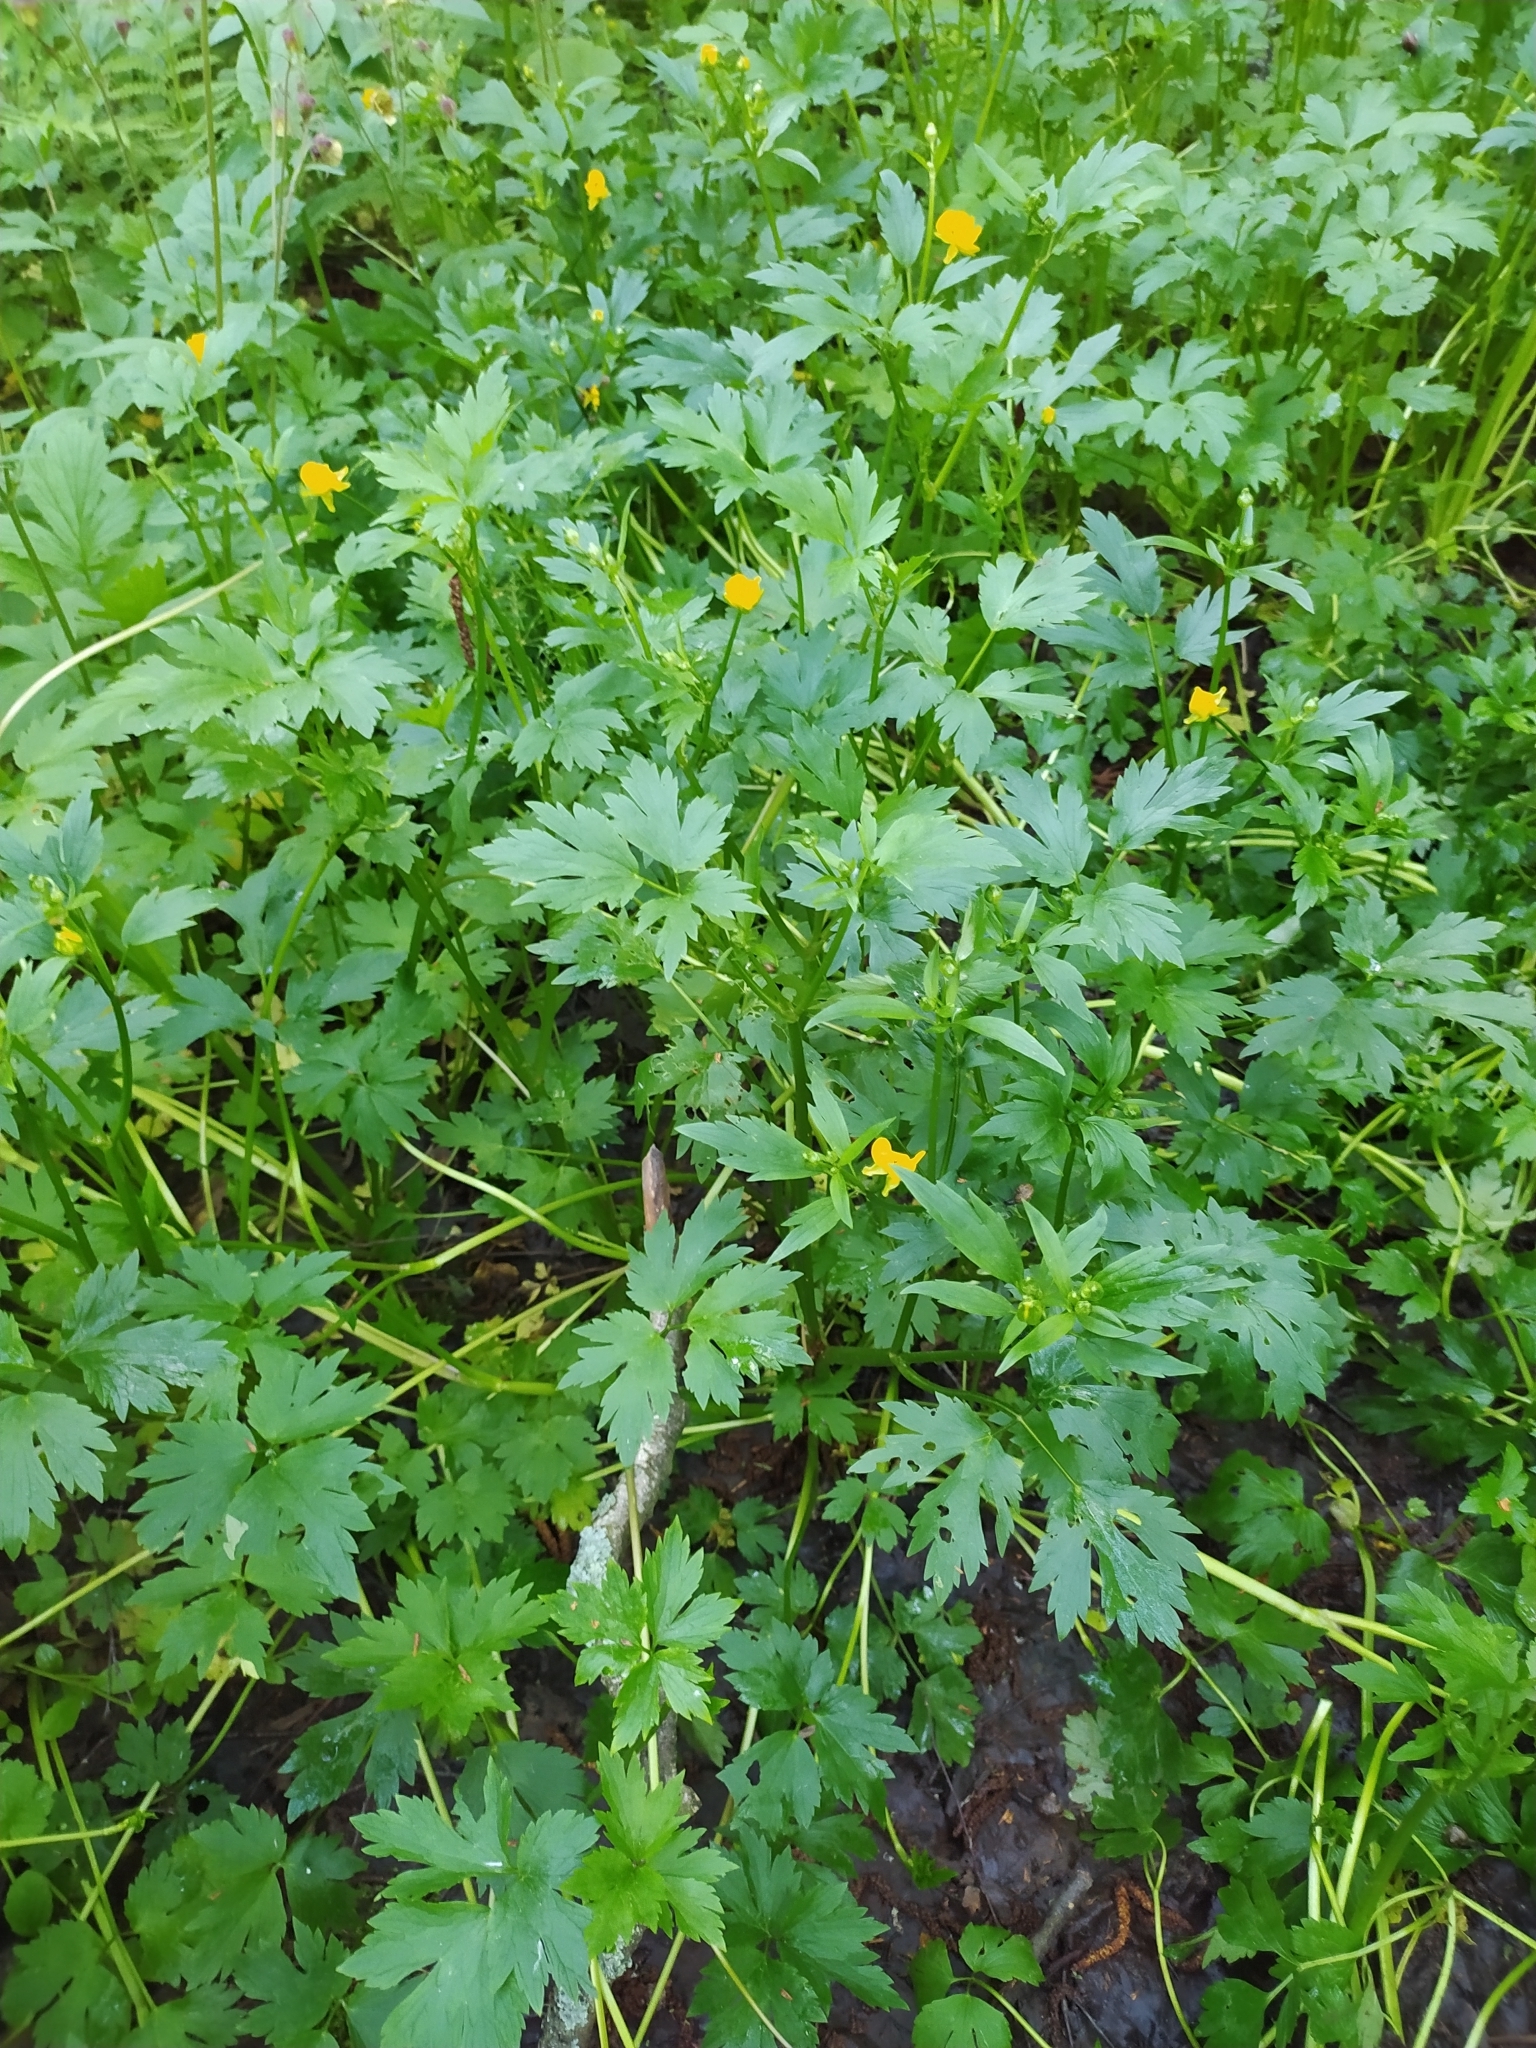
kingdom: Plantae
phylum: Tracheophyta
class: Magnoliopsida
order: Ranunculales
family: Ranunculaceae
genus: Ranunculus
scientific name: Ranunculus repens
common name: Creeping buttercup
